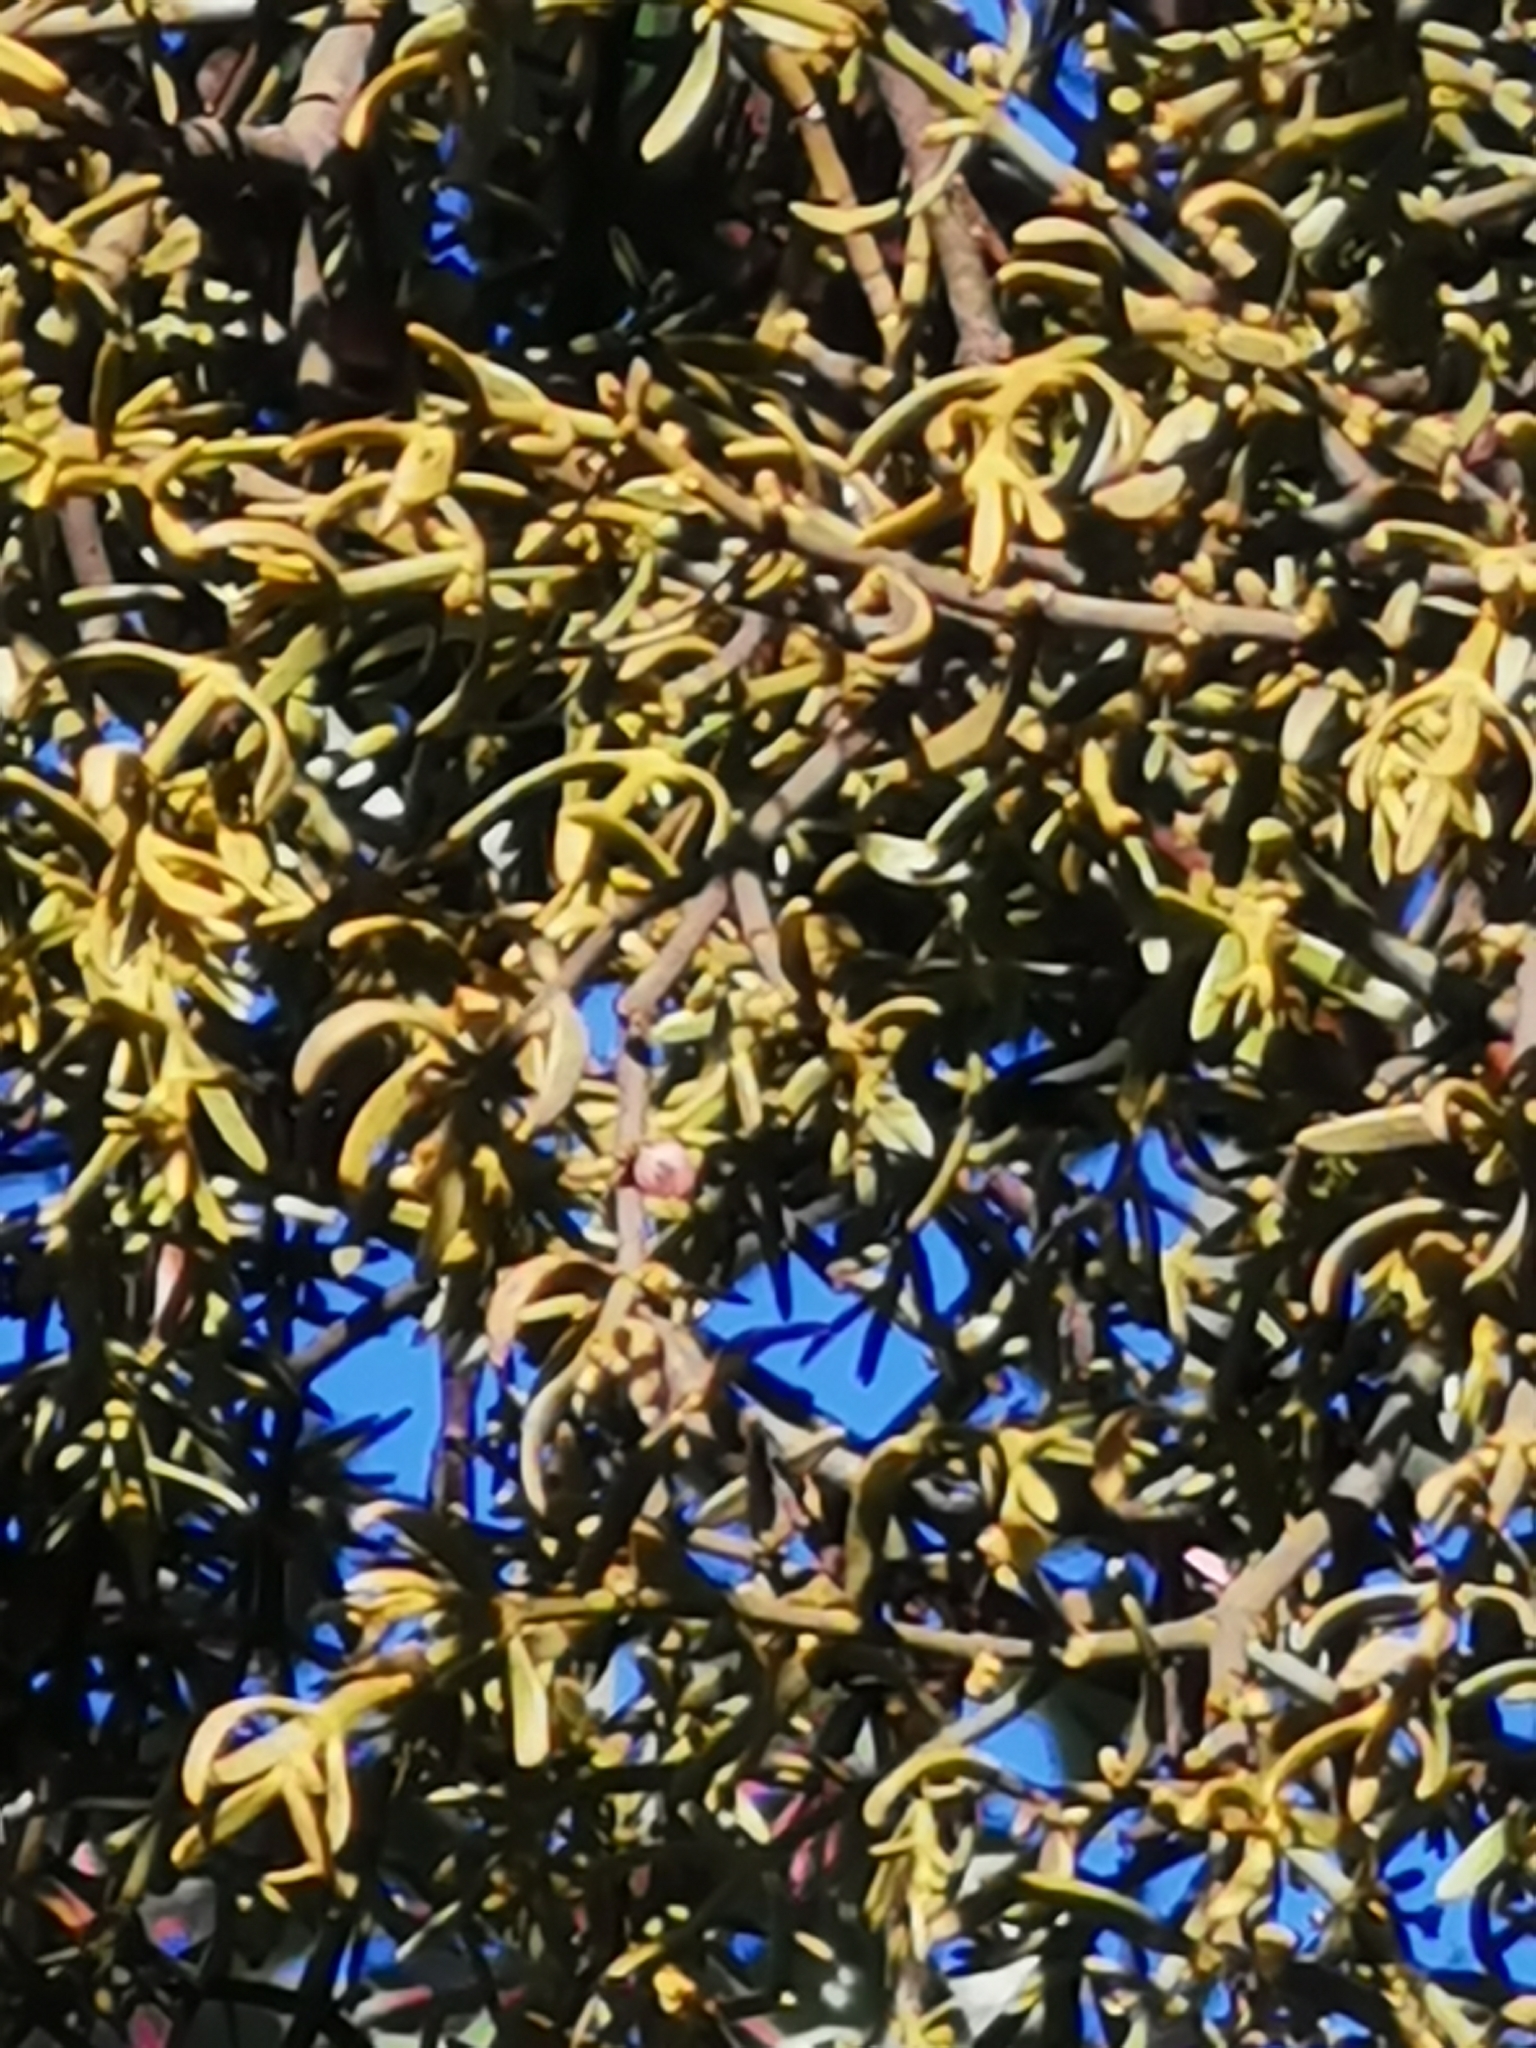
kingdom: Plantae
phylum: Tracheophyta
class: Magnoliopsida
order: Santalales
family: Viscaceae
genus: Phoradendron
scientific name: Phoradendron bolleanum
